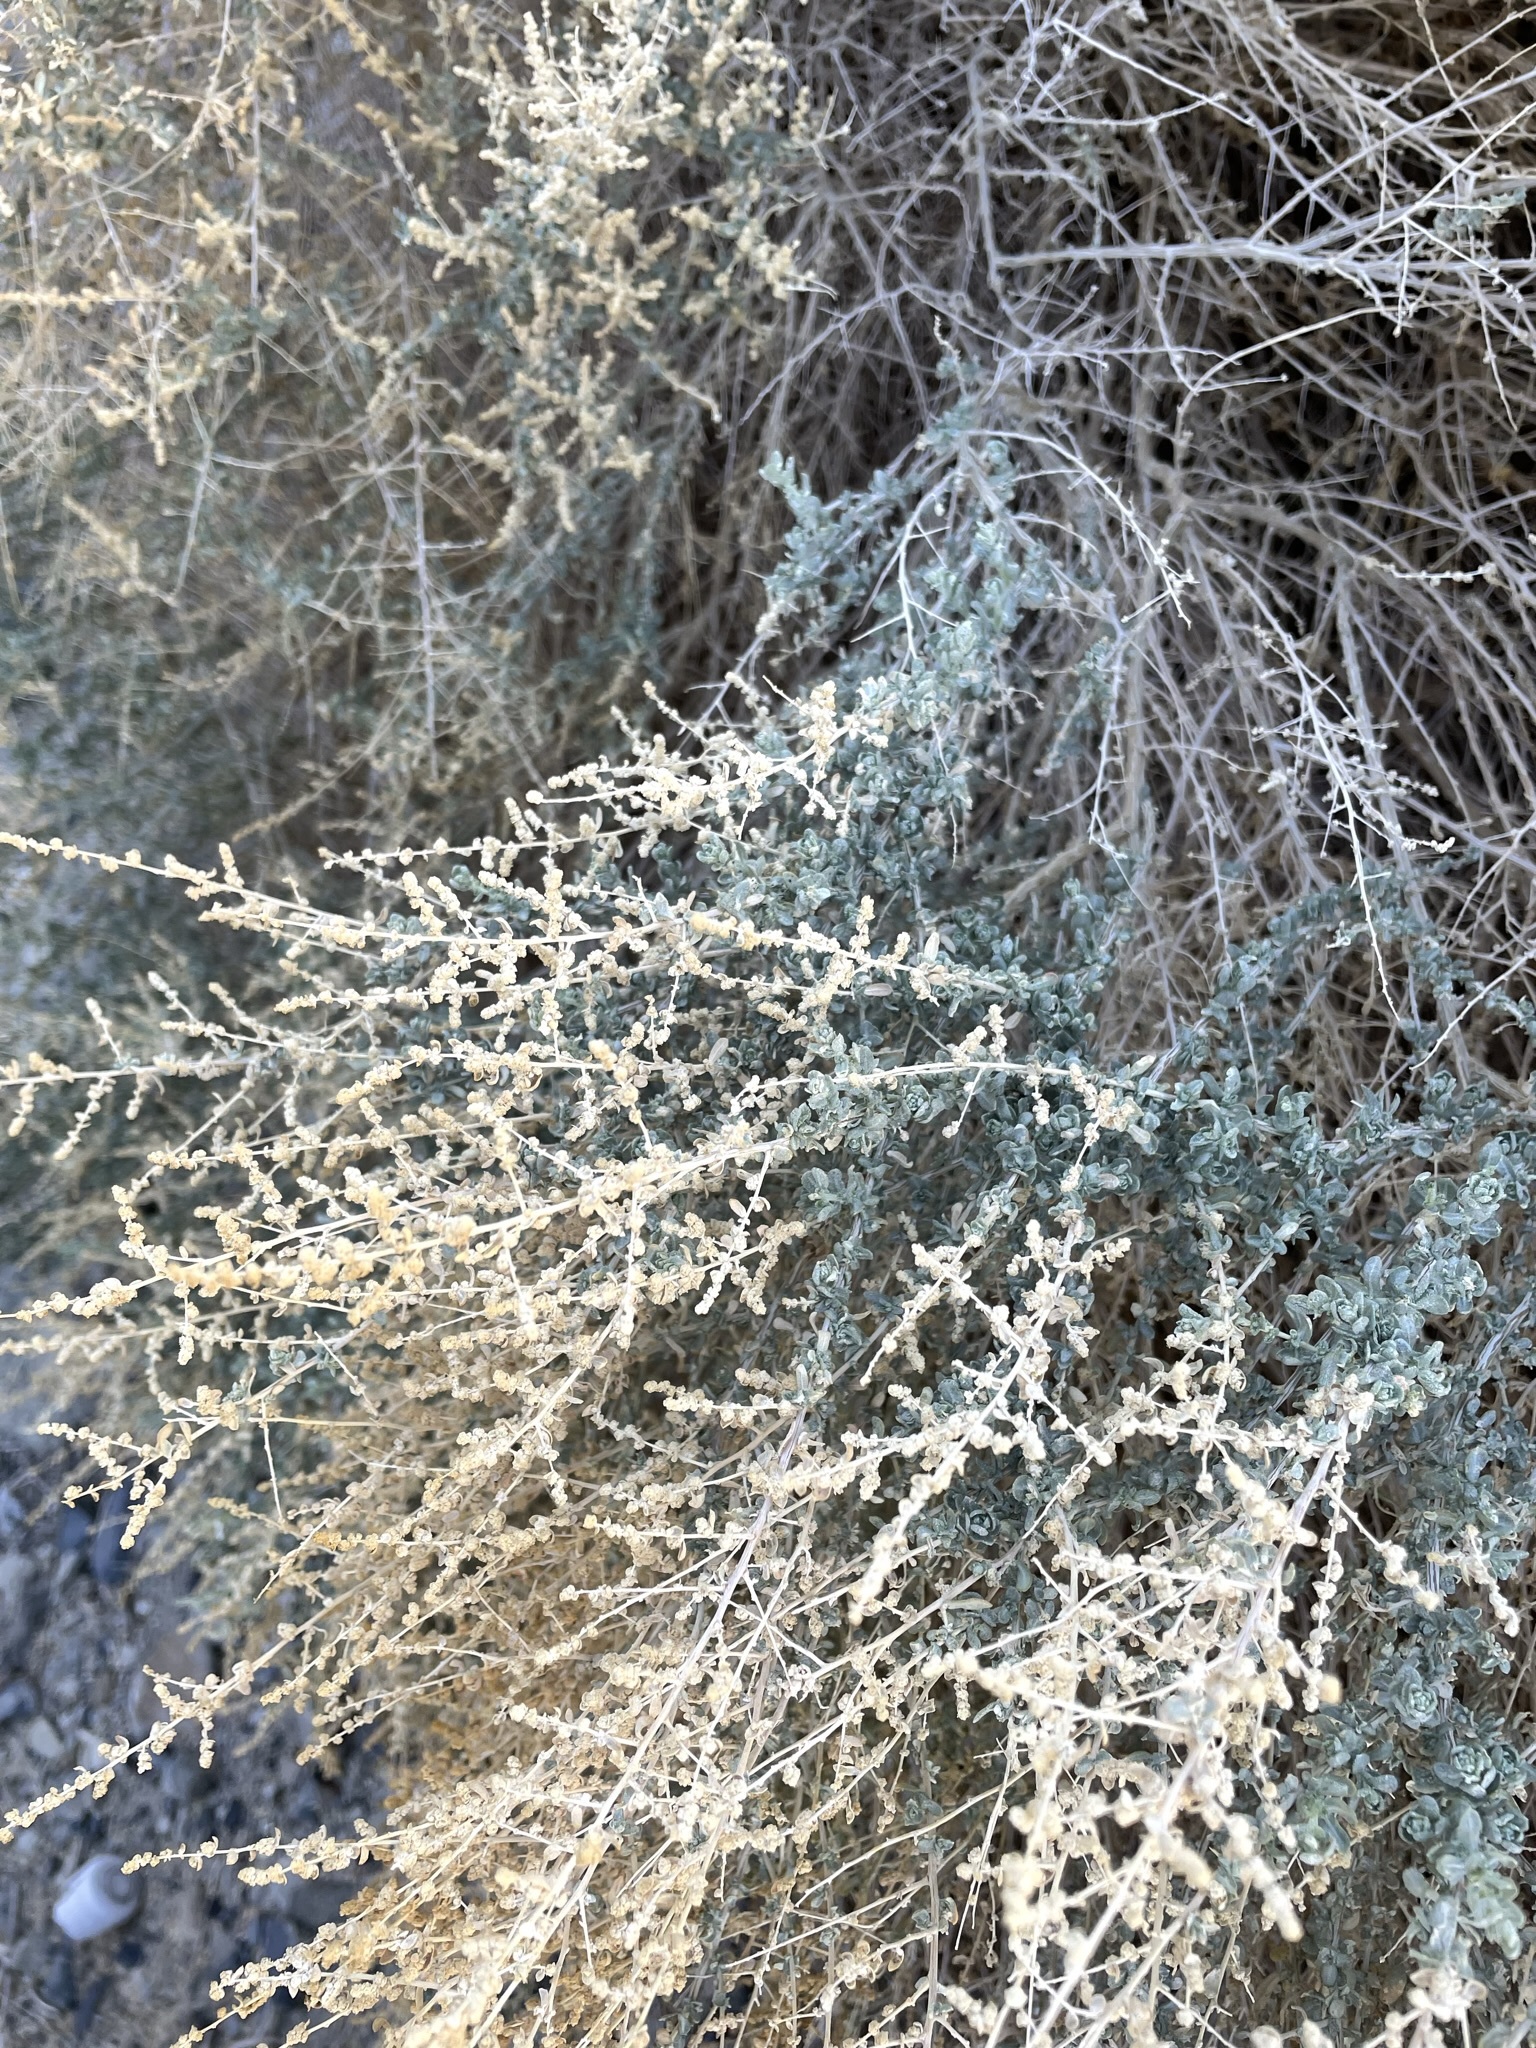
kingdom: Plantae
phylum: Tracheophyta
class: Magnoliopsida
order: Caryophyllales
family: Amaranthaceae
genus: Atriplex
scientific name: Atriplex polycarpa
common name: Desert saltbush
